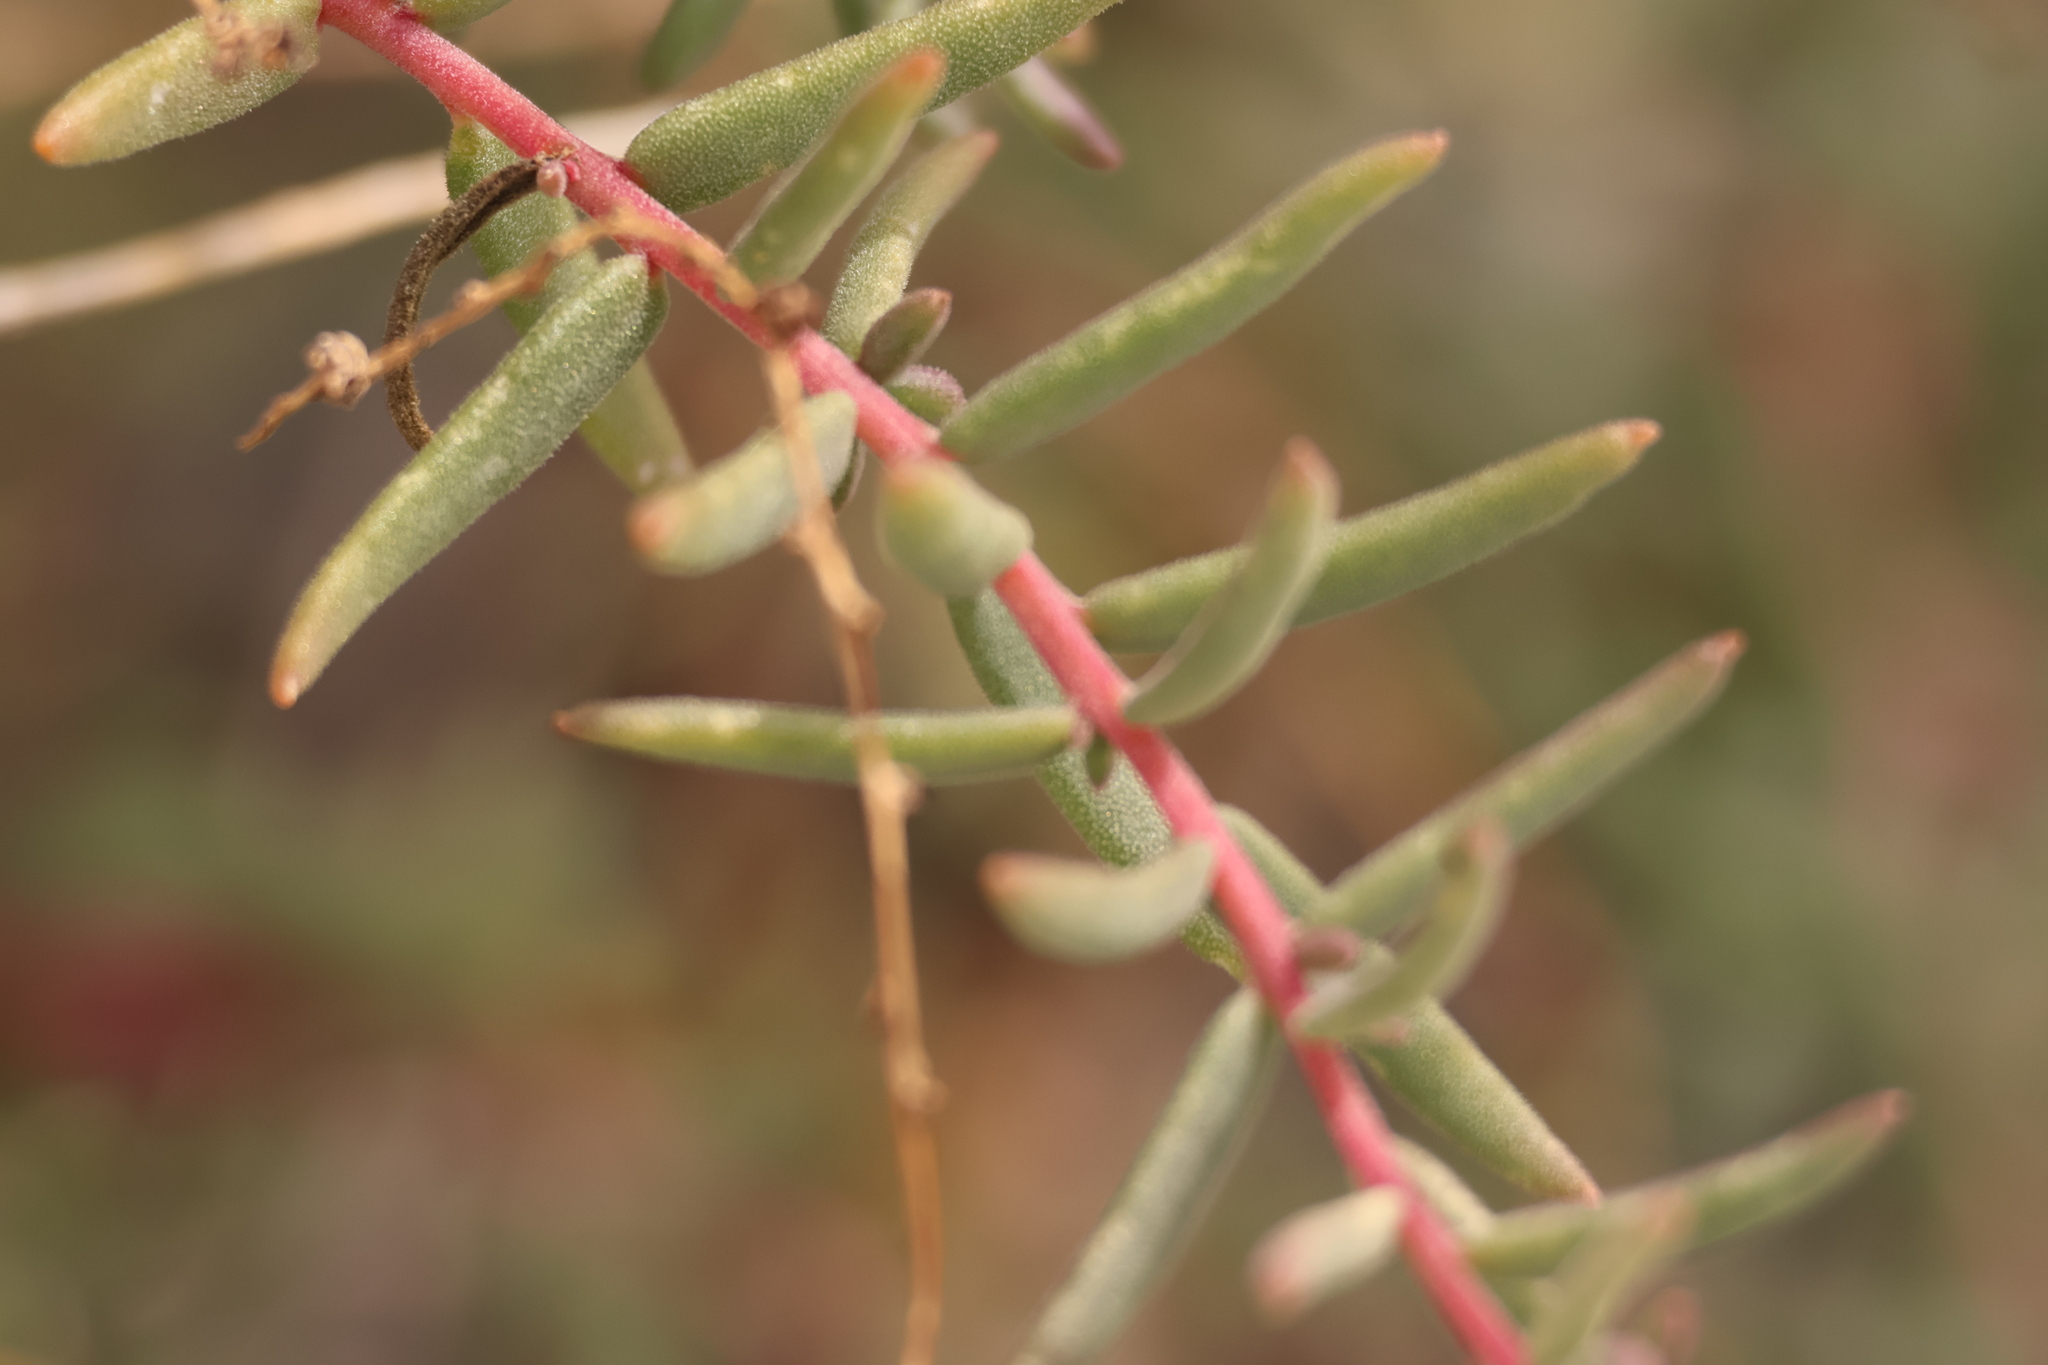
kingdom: Plantae
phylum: Tracheophyta
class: Magnoliopsida
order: Caryophyllales
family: Amaranthaceae
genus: Suaeda
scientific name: Suaeda nigra
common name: Bush seepweed
